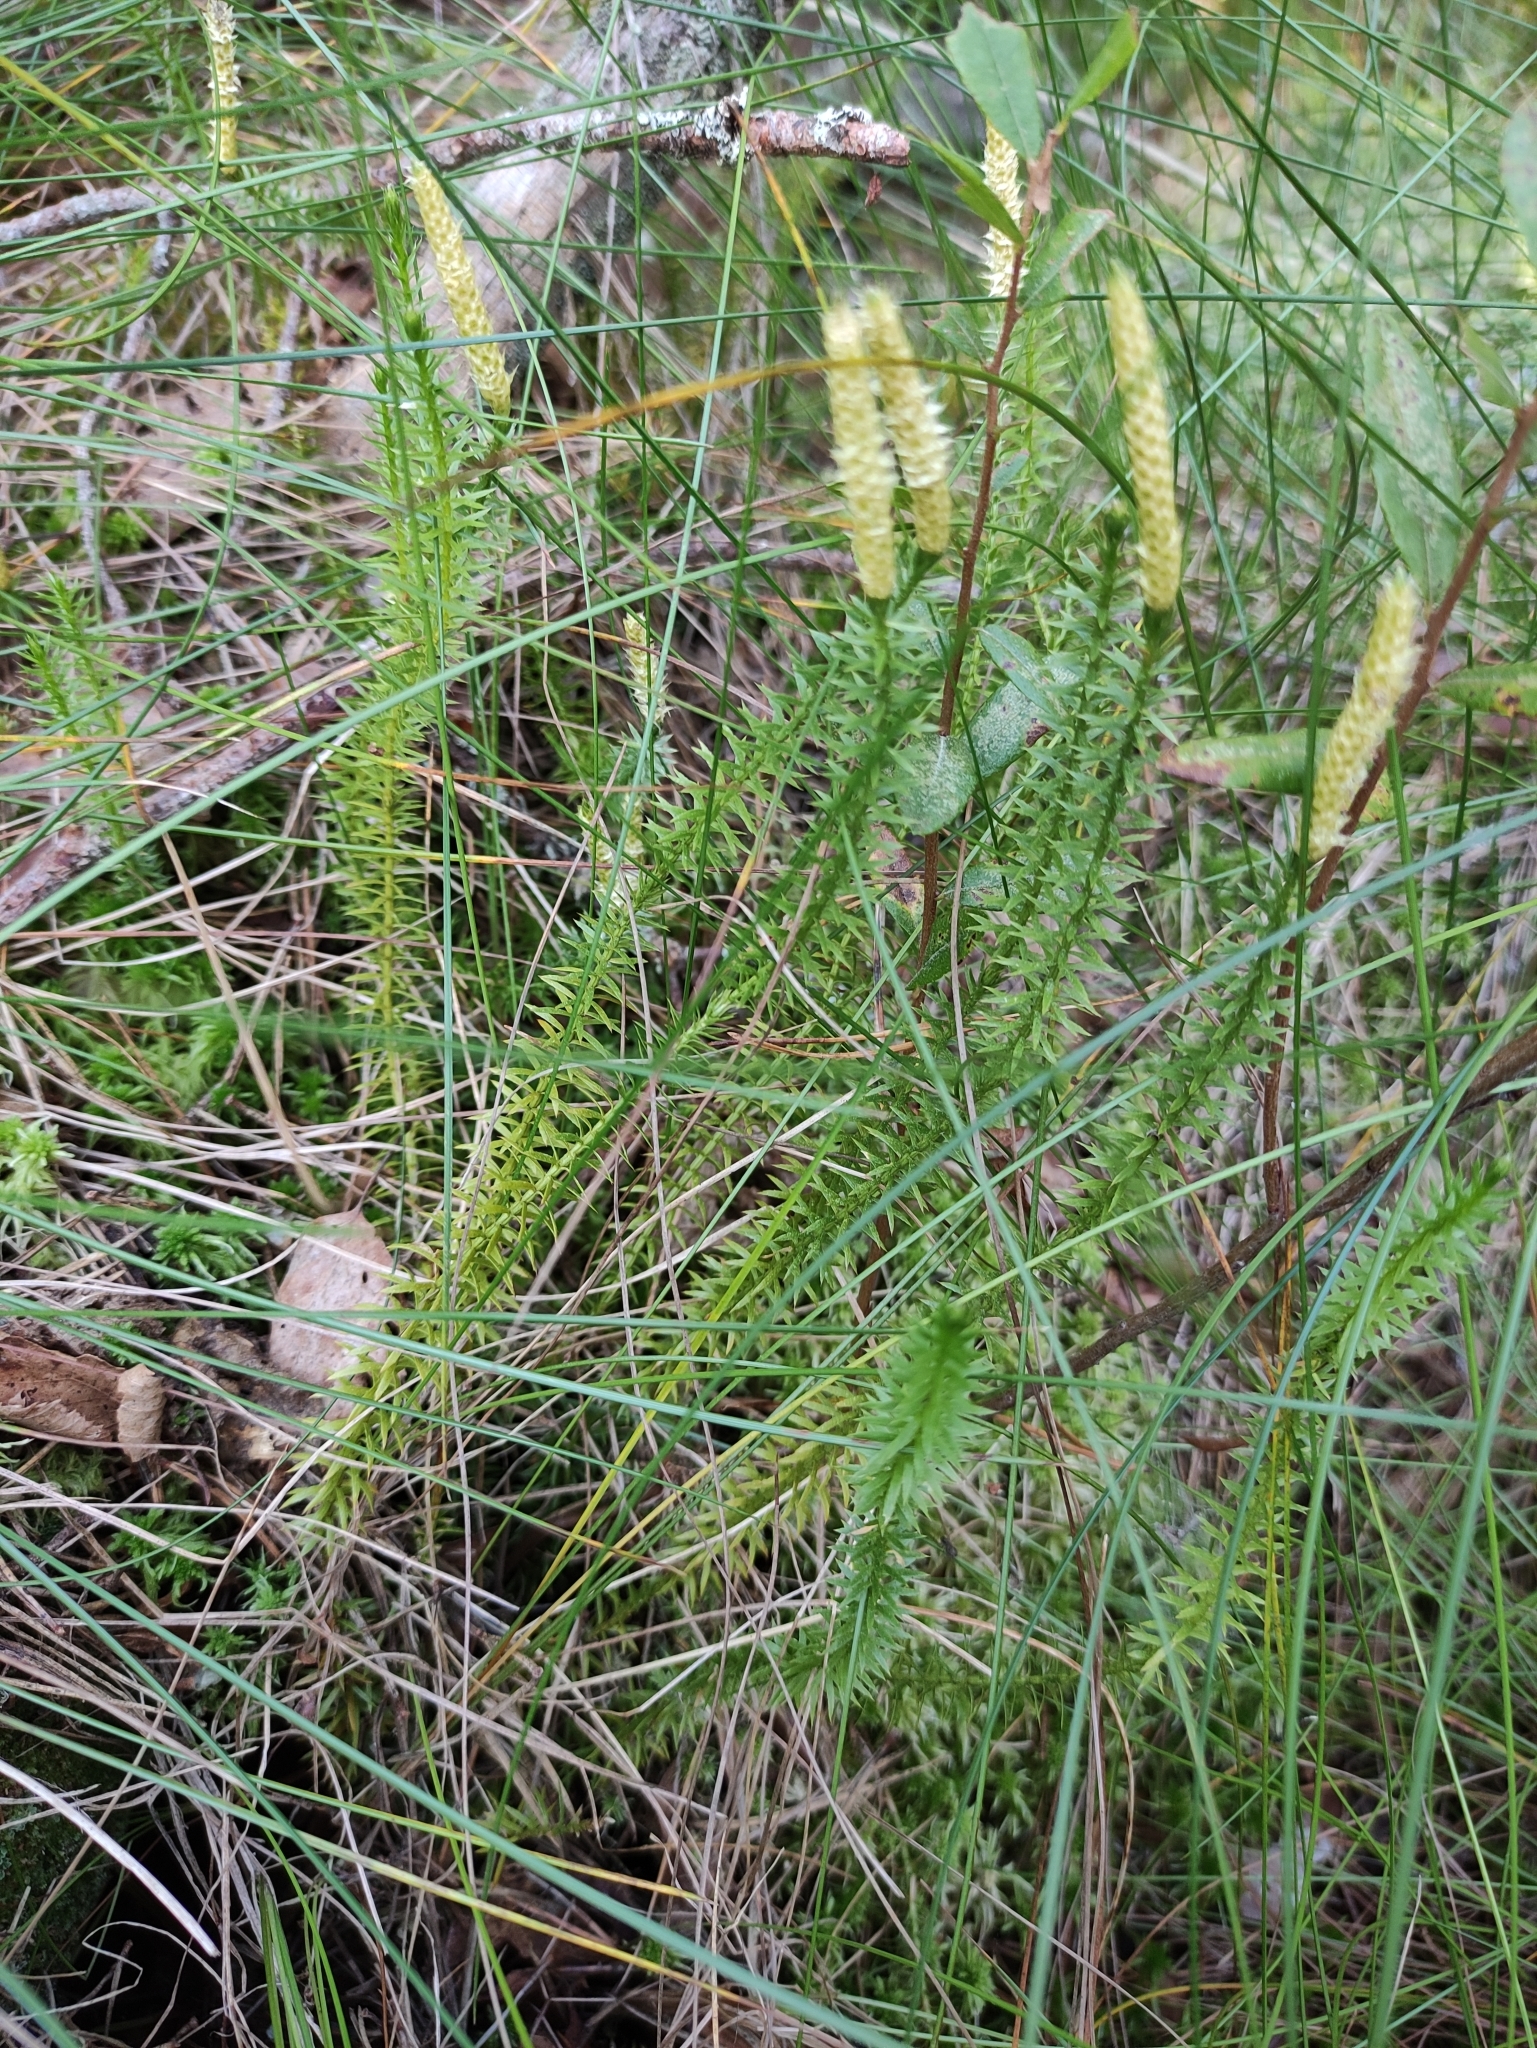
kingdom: Plantae
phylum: Tracheophyta
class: Lycopodiopsida
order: Lycopodiales
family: Lycopodiaceae
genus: Spinulum
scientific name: Spinulum annotinum
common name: Interrupted club-moss
